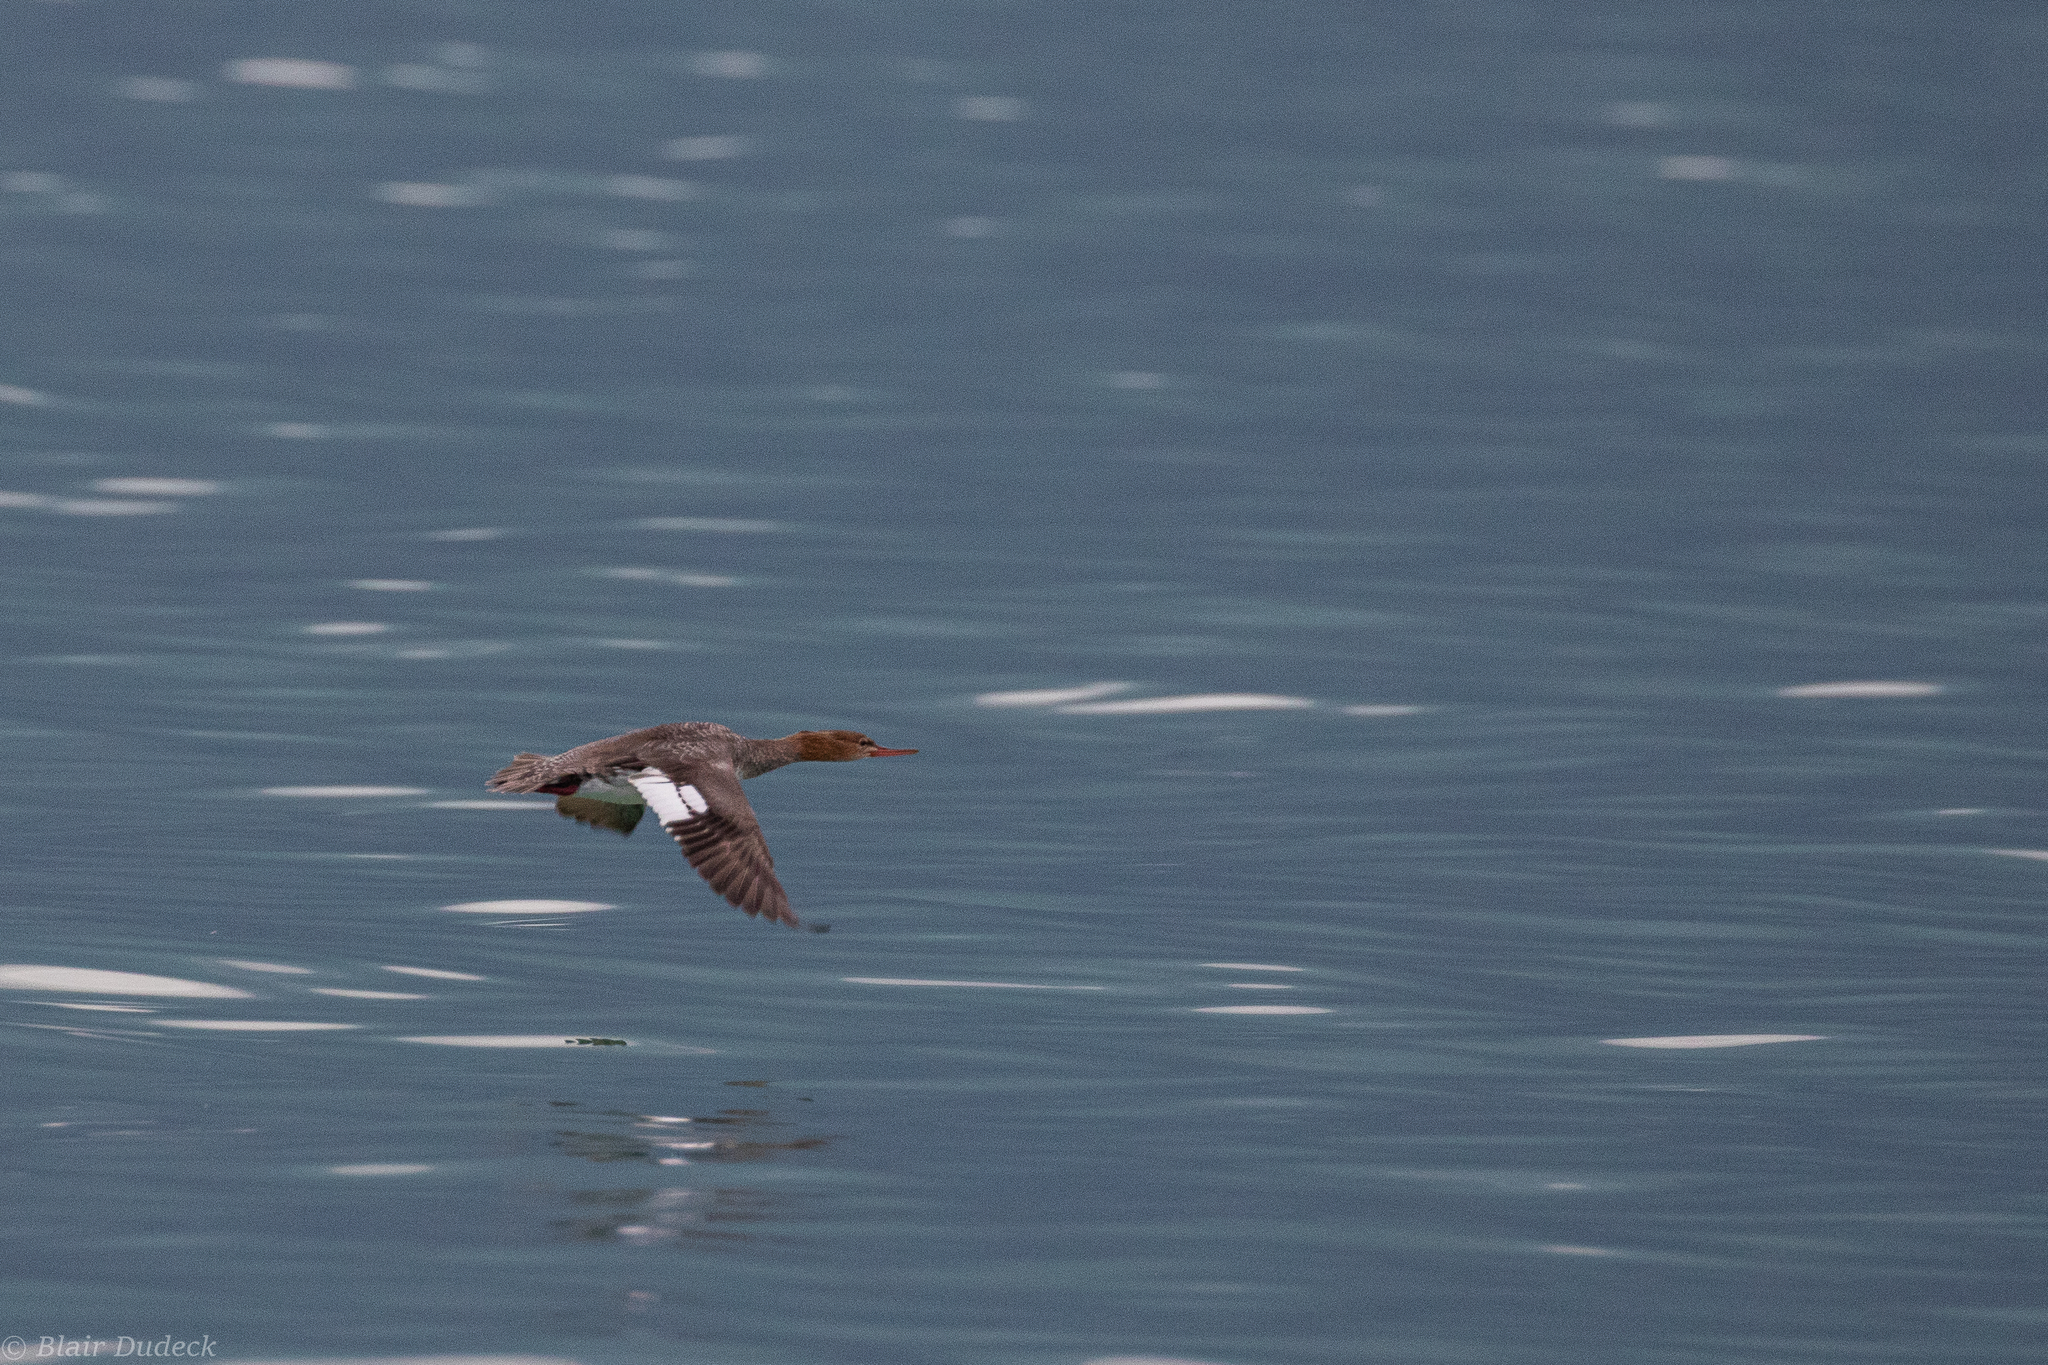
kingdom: Animalia
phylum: Chordata
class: Aves
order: Anseriformes
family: Anatidae
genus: Mergus
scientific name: Mergus serrator
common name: Red-breasted merganser
